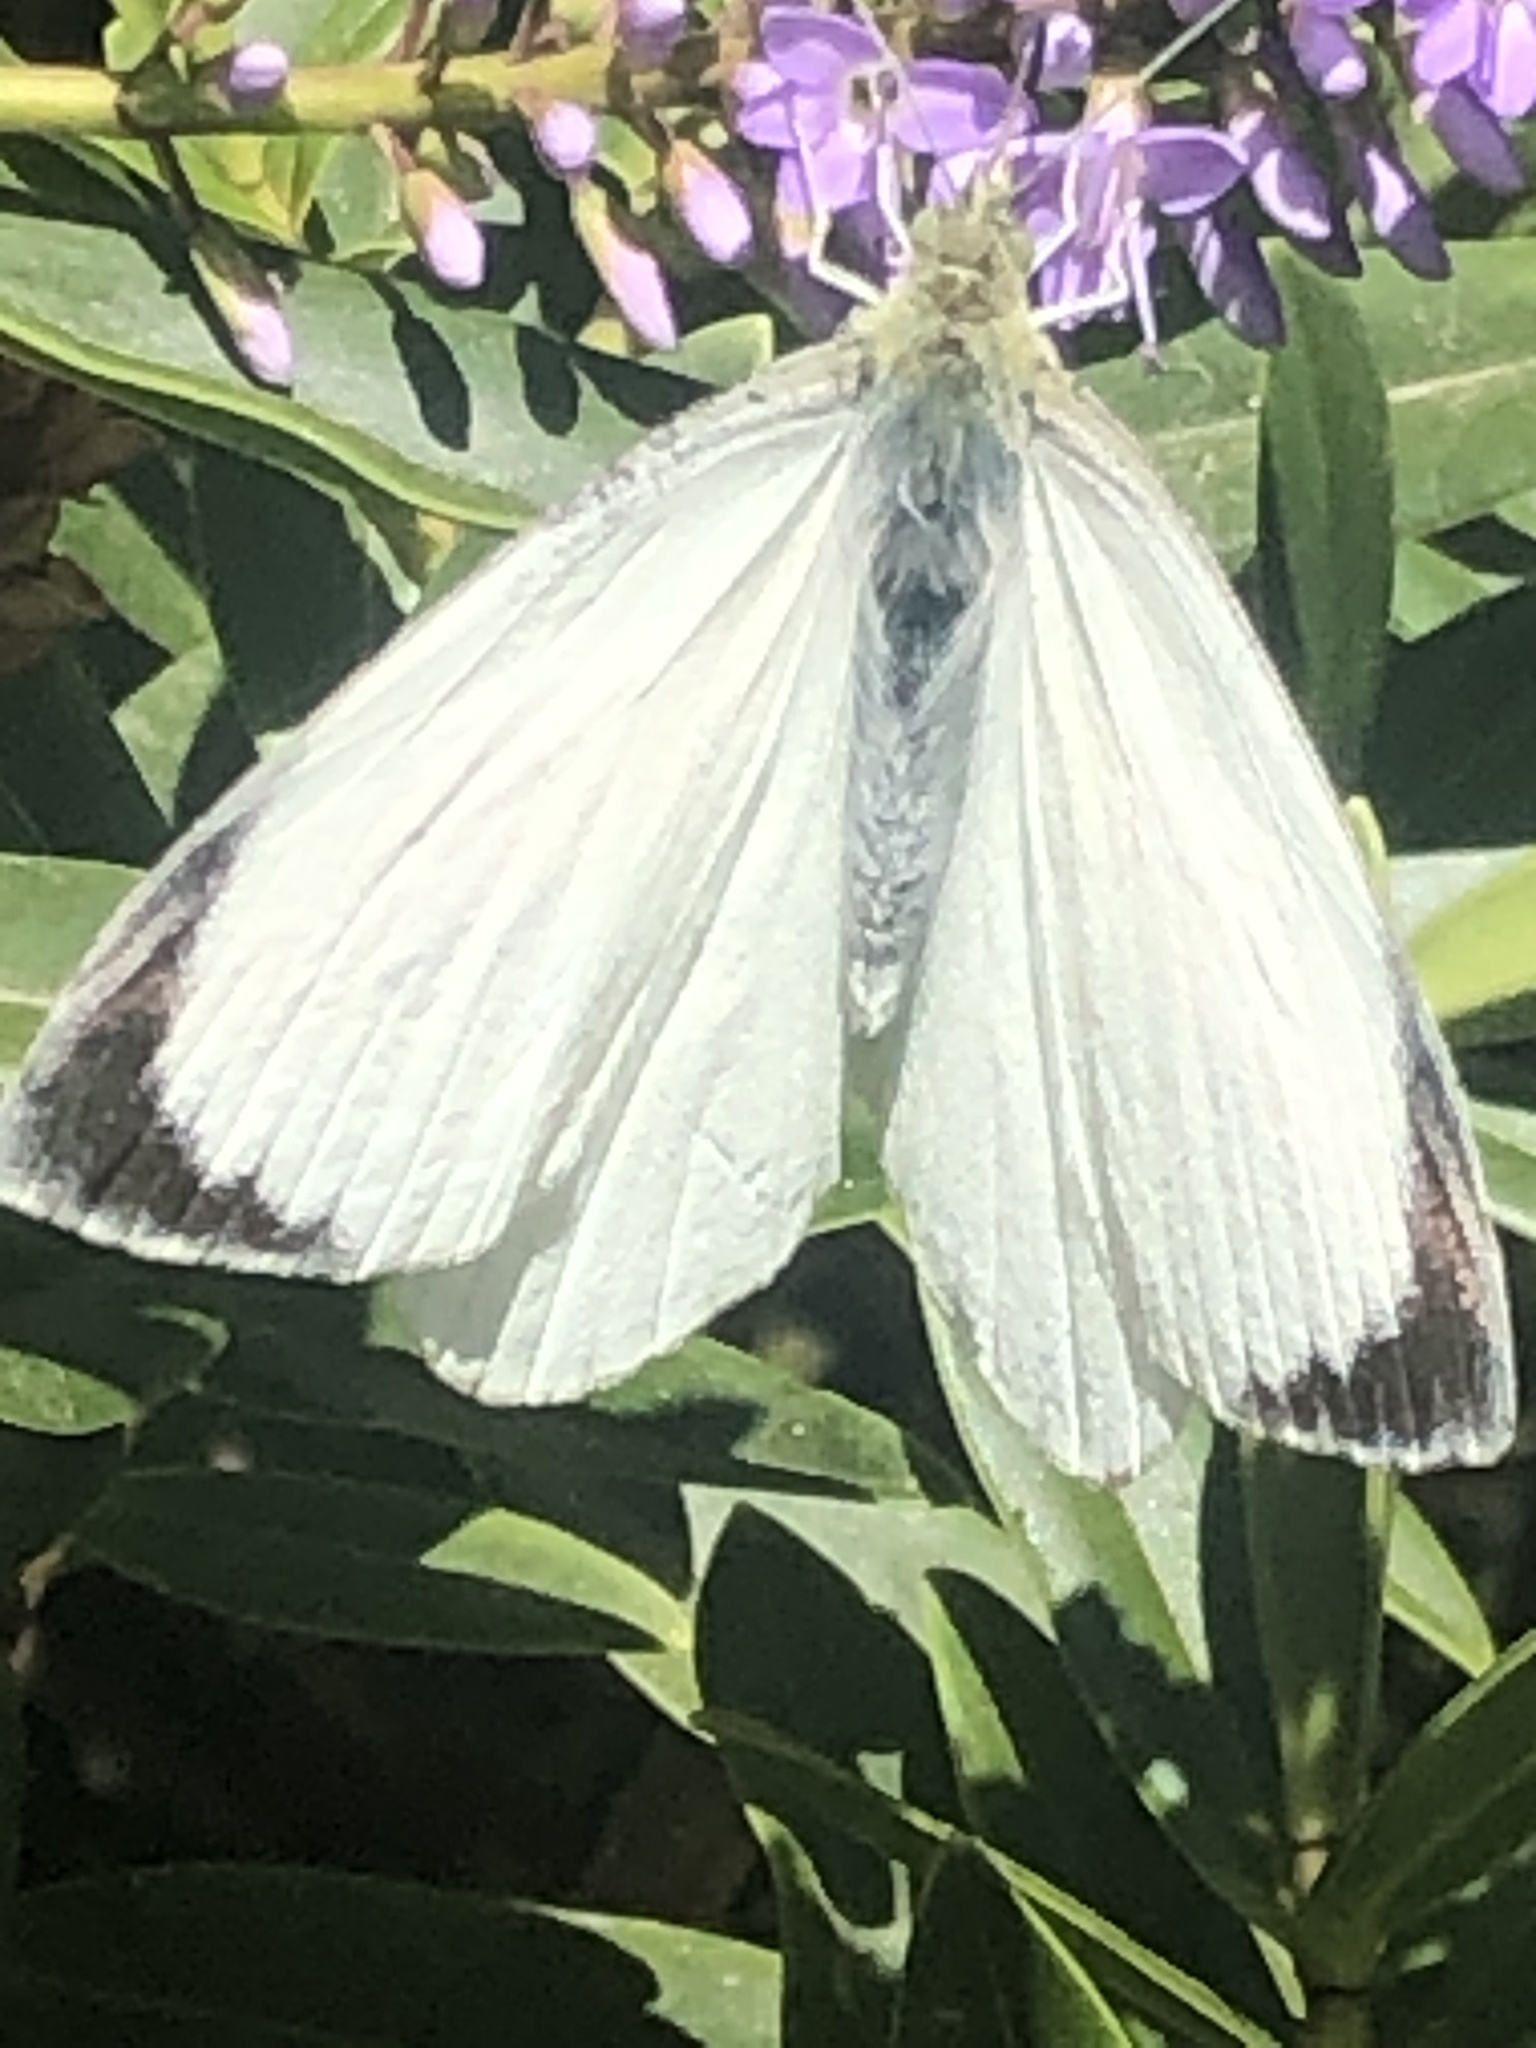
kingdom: Animalia
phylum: Arthropoda
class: Insecta
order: Lepidoptera
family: Pieridae
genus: Pieris
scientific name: Pieris brassicae
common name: Large white
